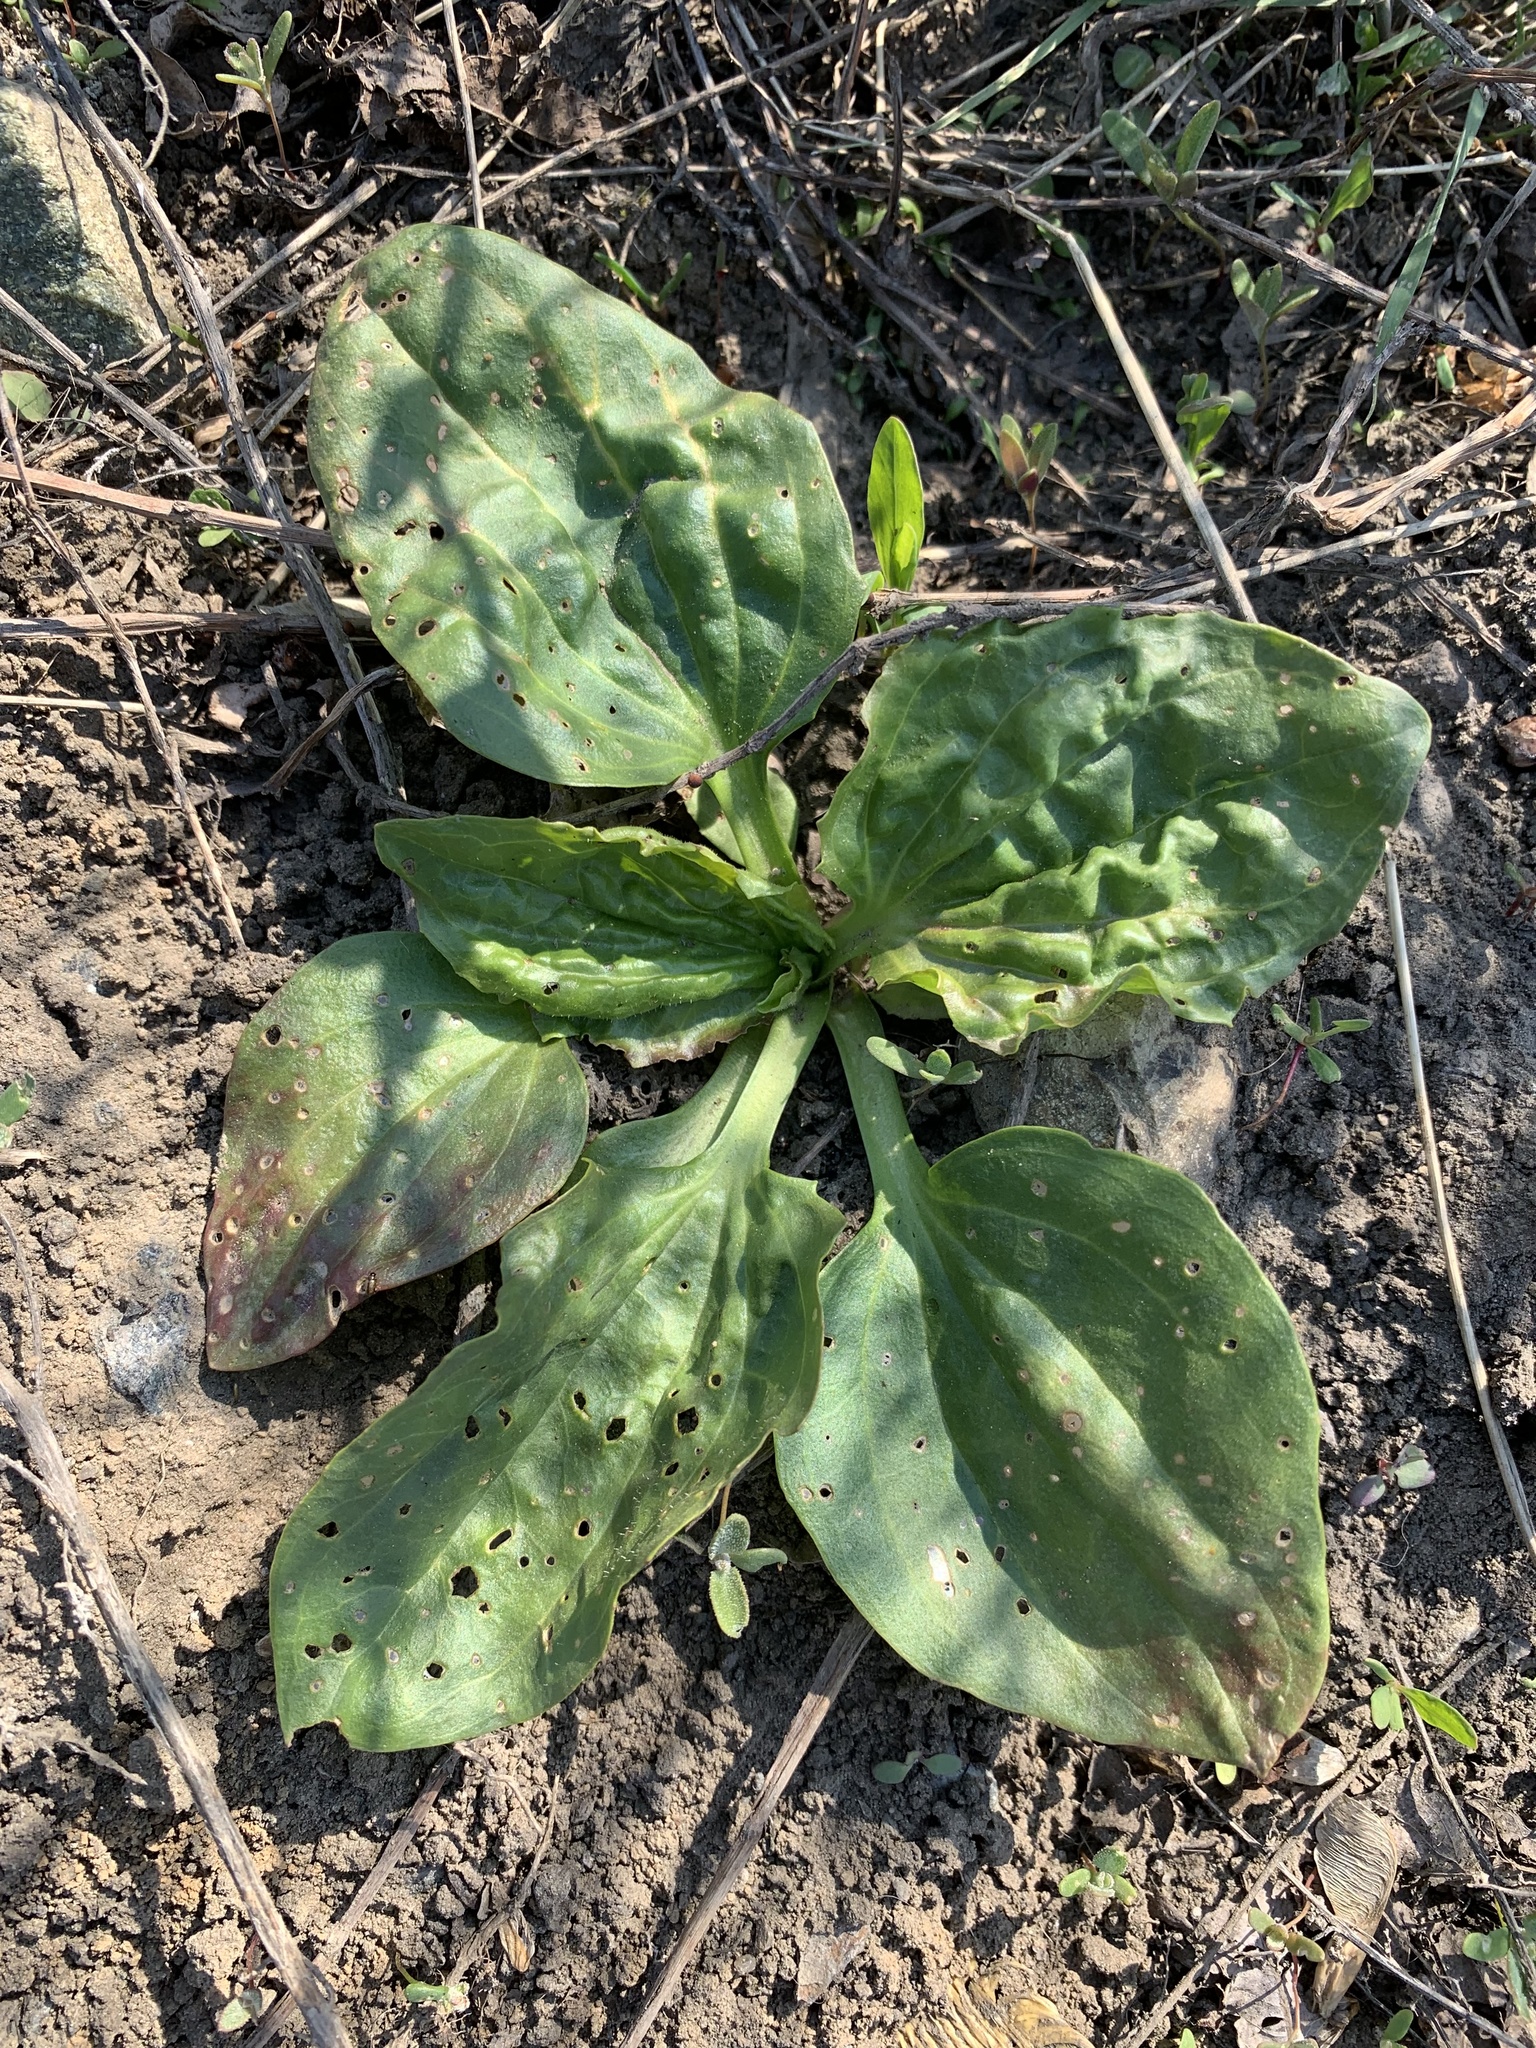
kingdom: Plantae
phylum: Tracheophyta
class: Magnoliopsida
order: Lamiales
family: Plantaginaceae
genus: Plantago
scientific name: Plantago major
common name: Common plantain
